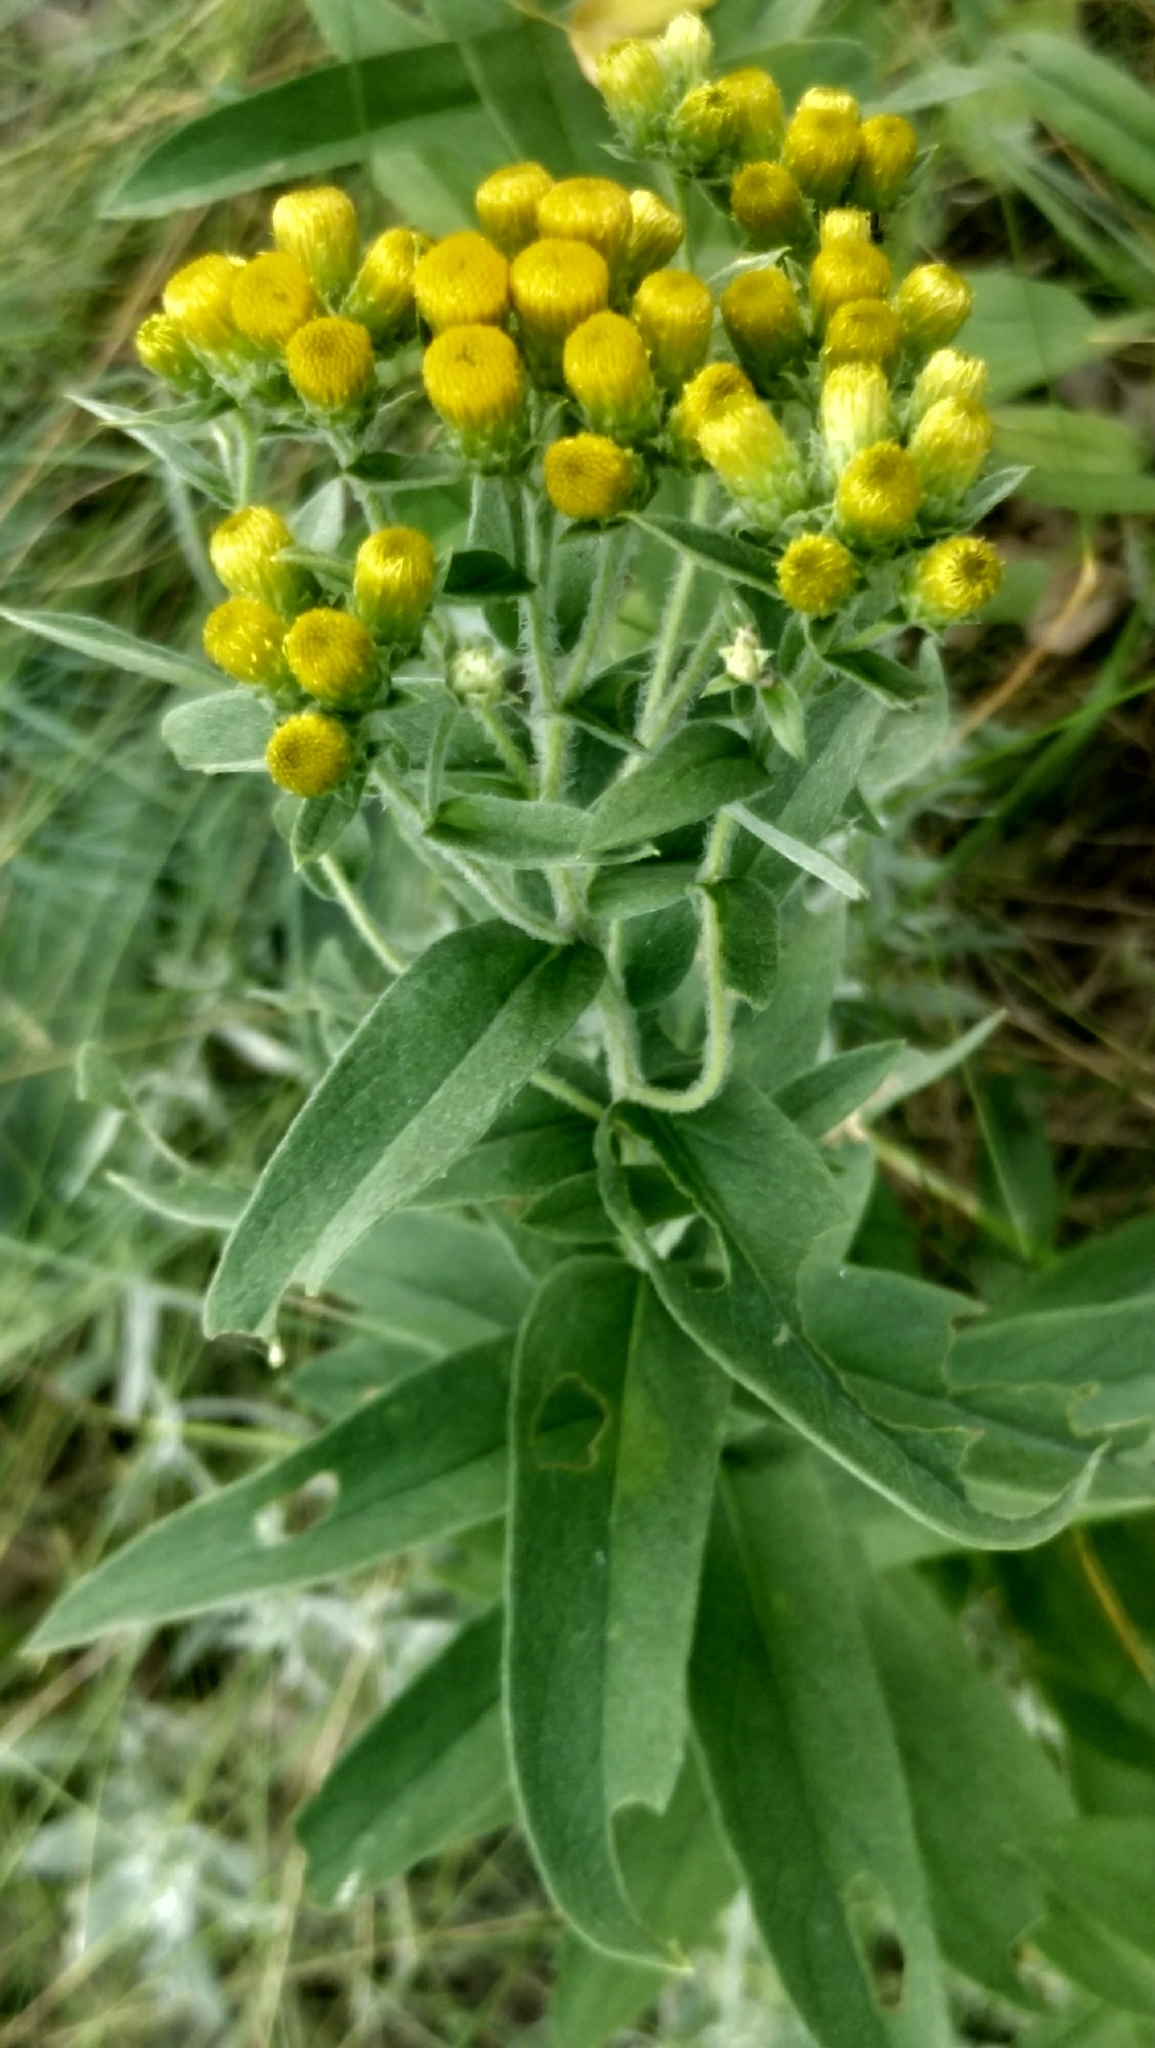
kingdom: Plantae
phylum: Tracheophyta
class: Magnoliopsida
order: Asterales
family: Asteraceae
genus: Pentanema
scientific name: Pentanema germanicum
